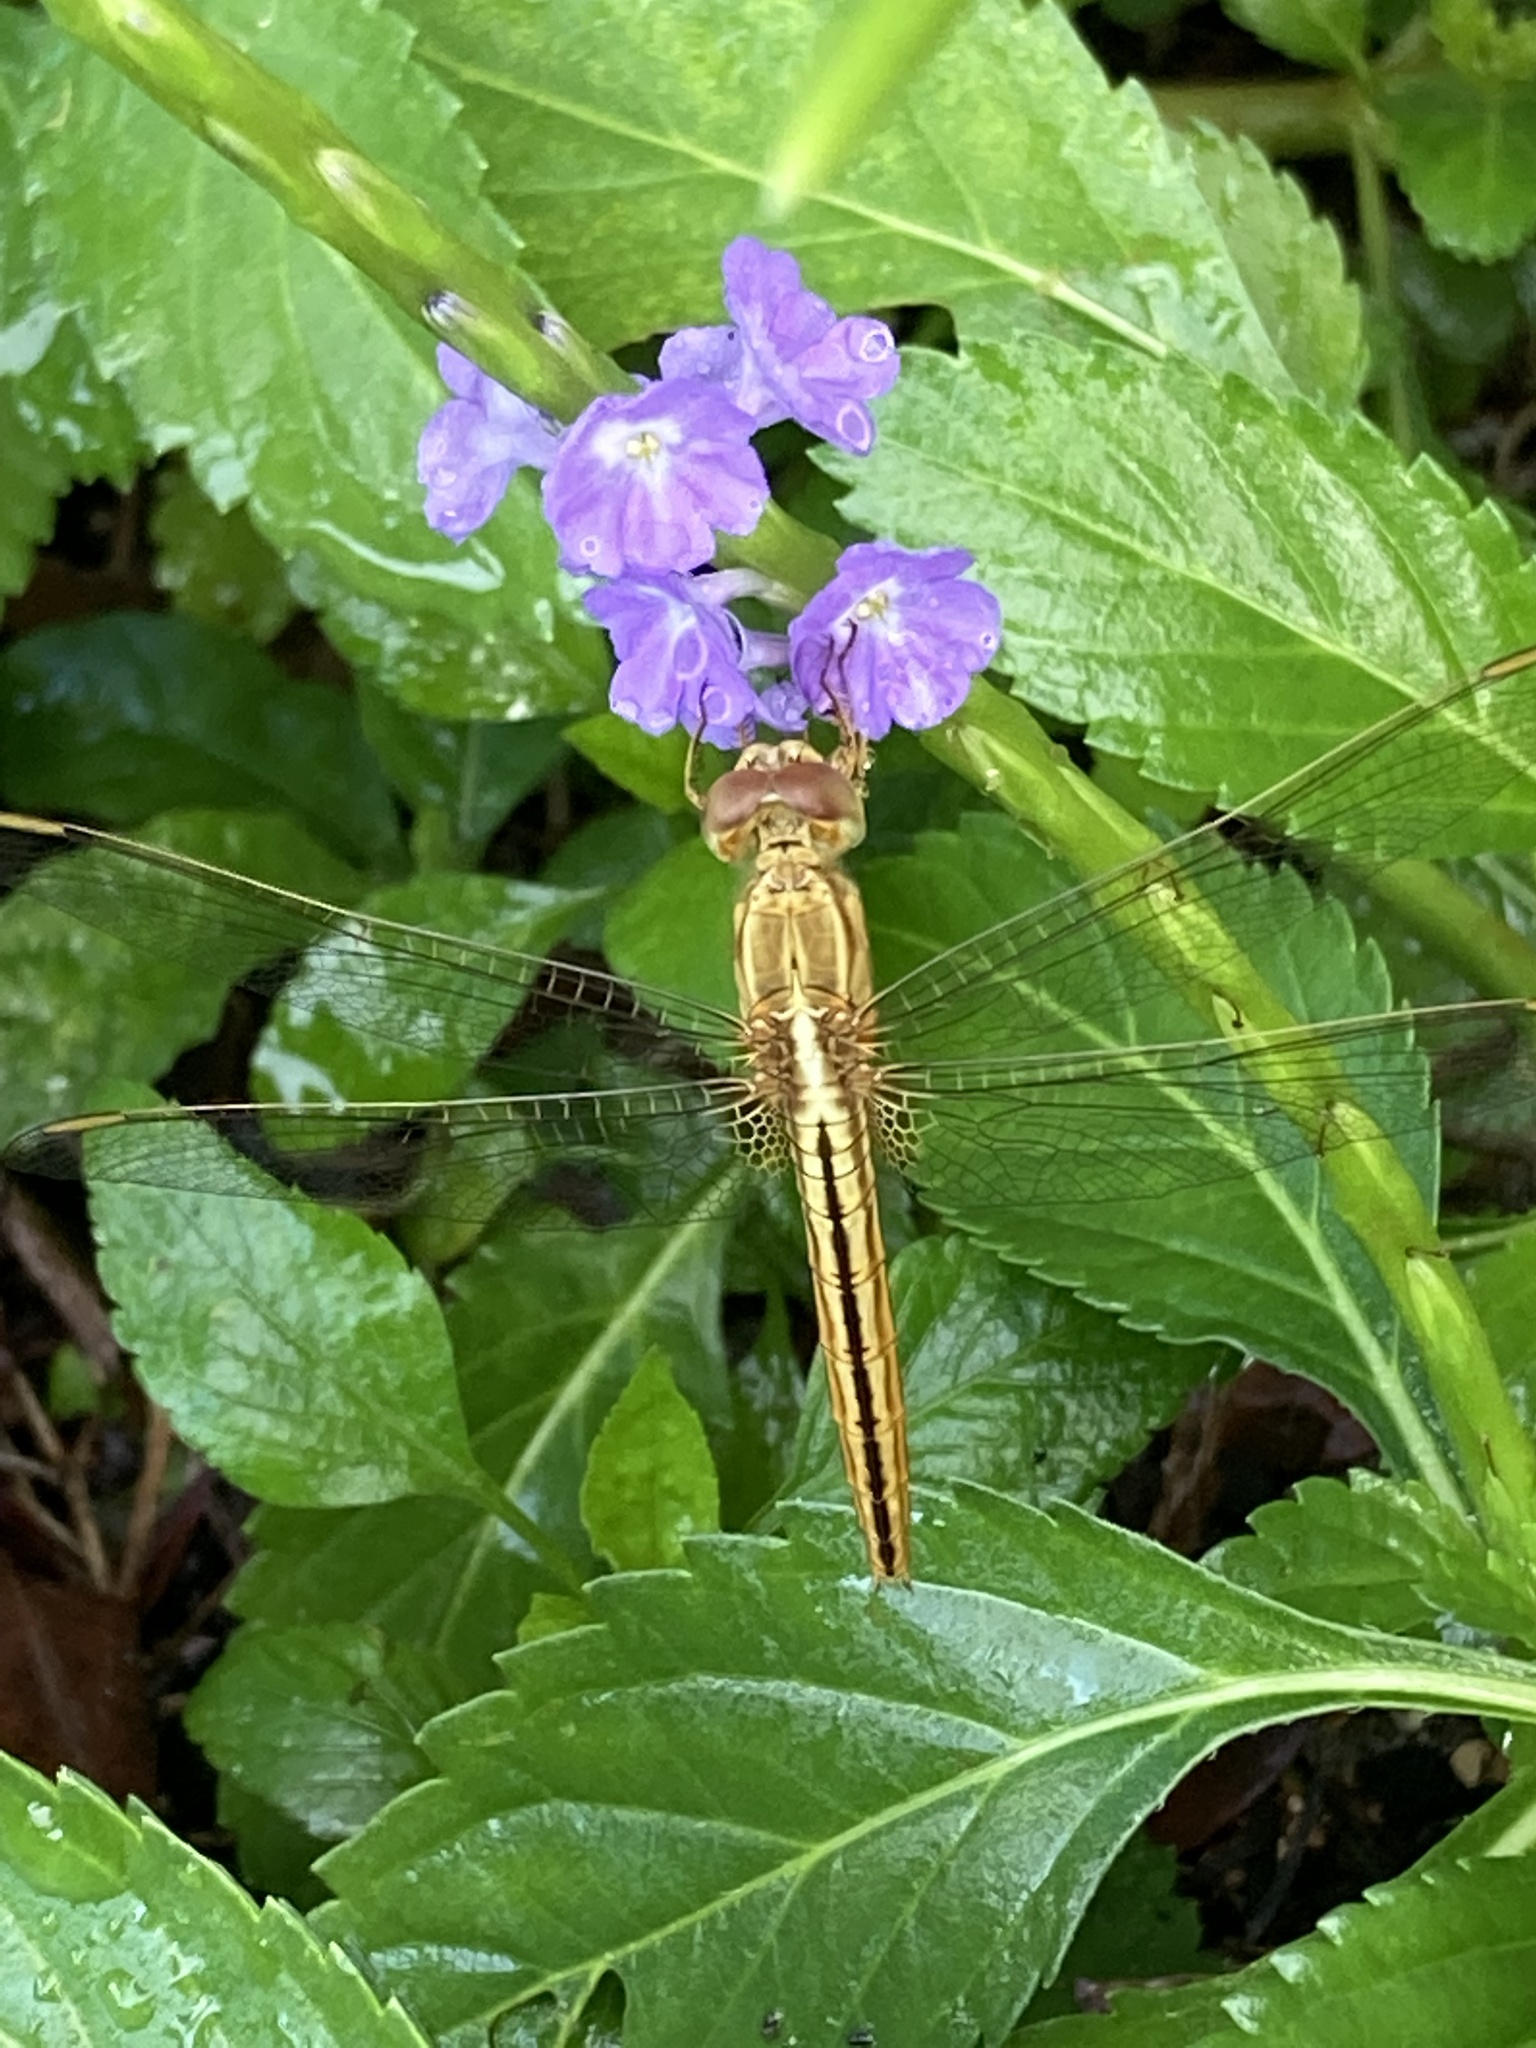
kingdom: Animalia
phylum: Arthropoda
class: Insecta
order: Odonata
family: Libellulidae
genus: Crocothemis
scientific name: Crocothemis servilia
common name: Scarlet skimmer
